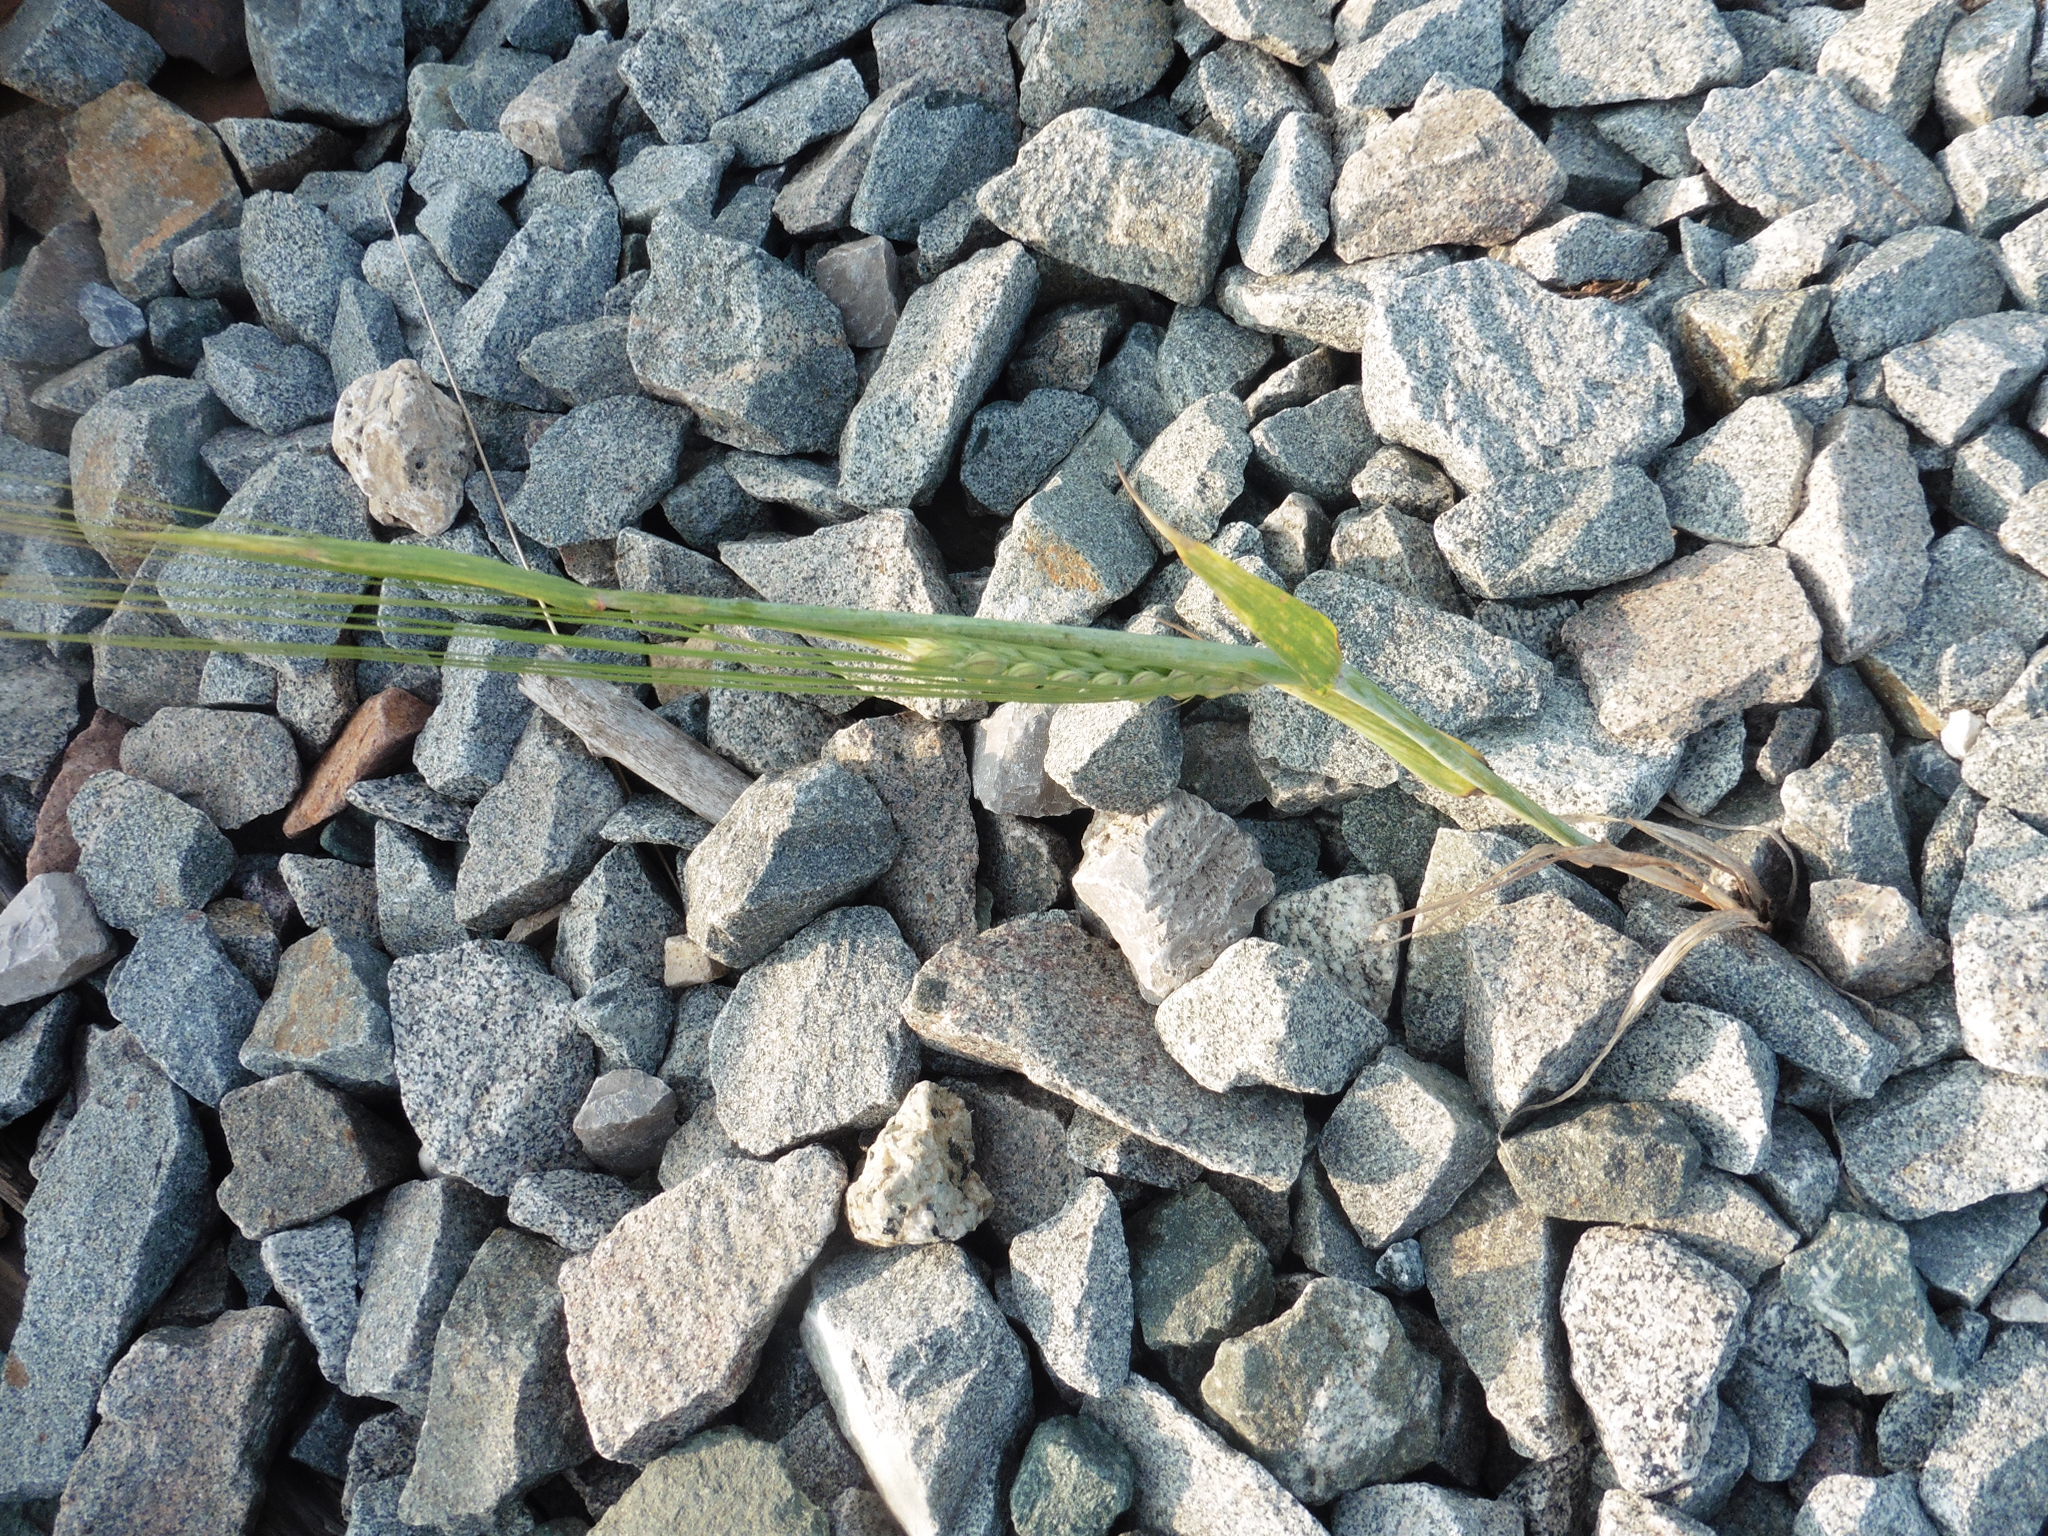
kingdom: Plantae
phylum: Tracheophyta
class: Liliopsida
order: Poales
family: Poaceae
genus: Hordeum
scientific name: Hordeum distichon
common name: Two-rowed barley
